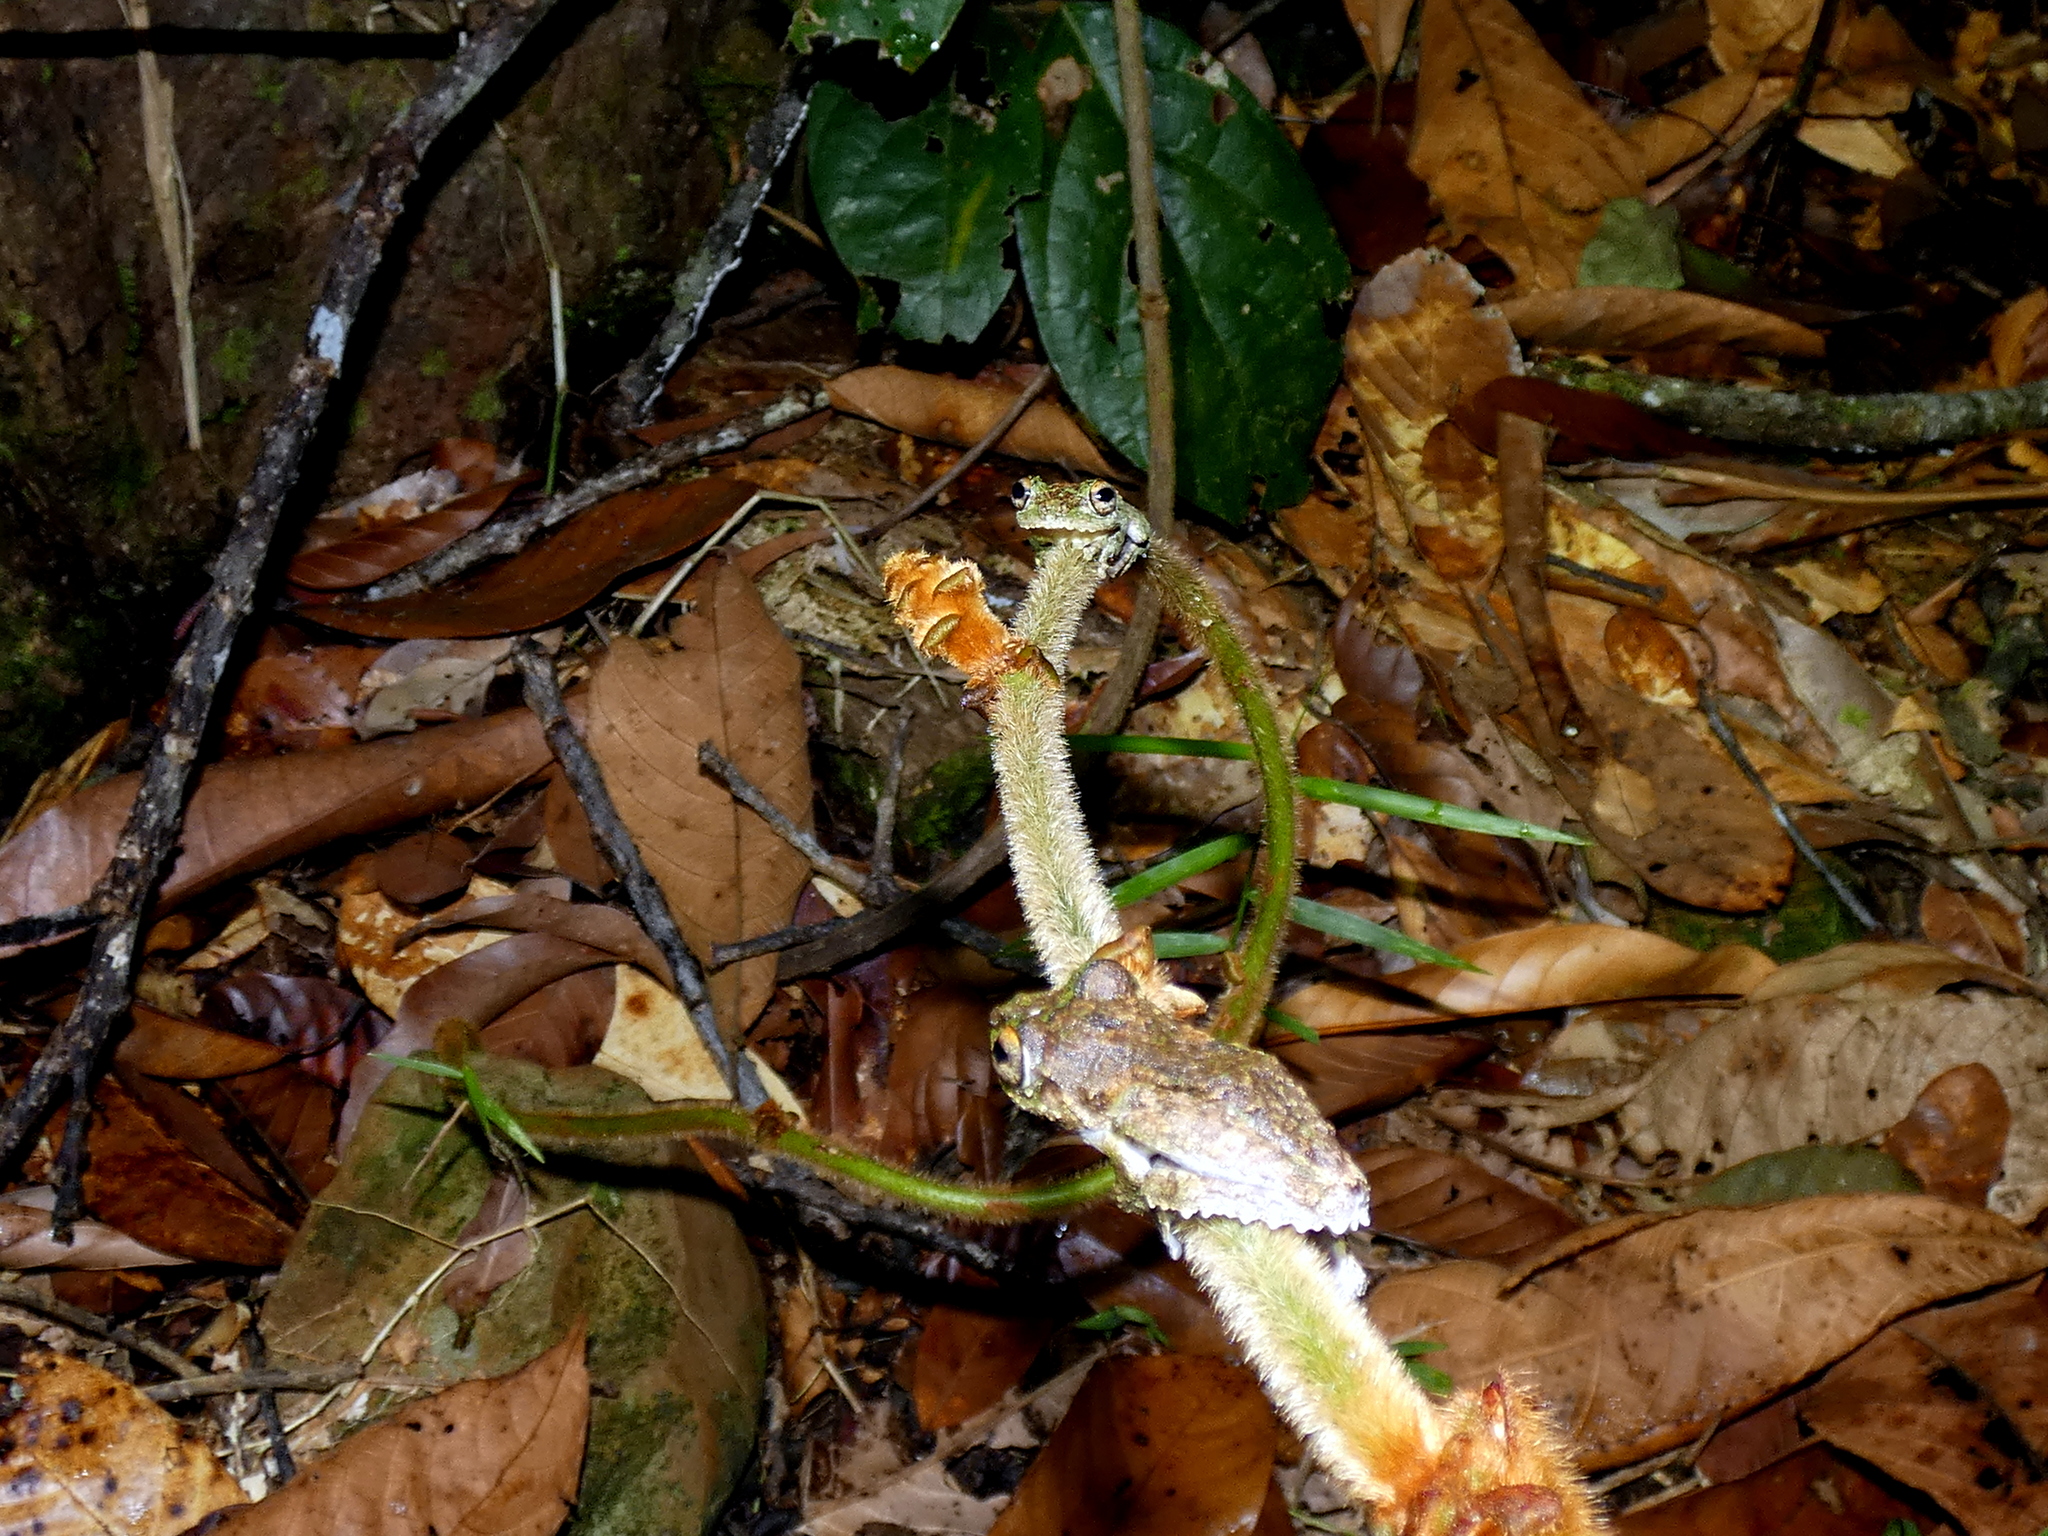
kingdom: Animalia
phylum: Chordata
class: Amphibia
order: Anura
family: Rhacophoridae
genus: Kurixalus
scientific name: Kurixalus chaseni
